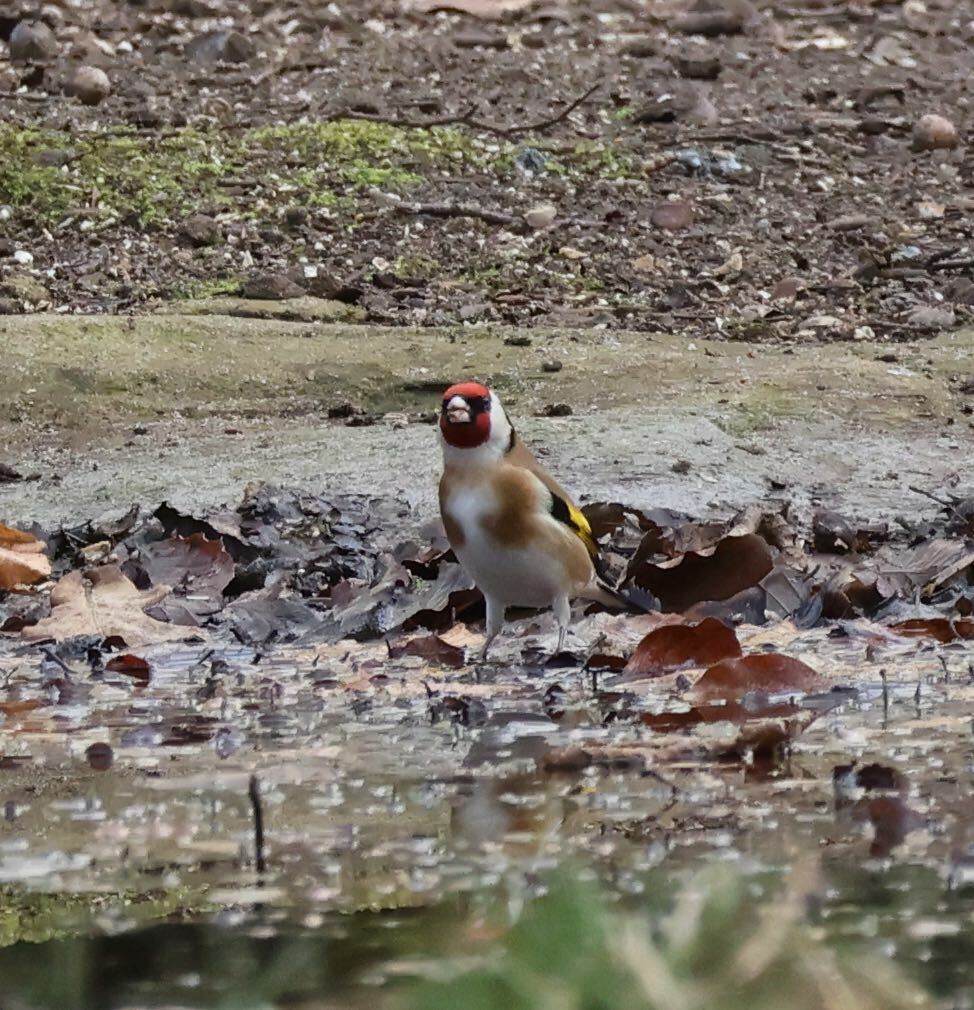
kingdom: Animalia
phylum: Chordata
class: Aves
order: Passeriformes
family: Fringillidae
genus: Carduelis
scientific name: Carduelis carduelis
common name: European goldfinch
